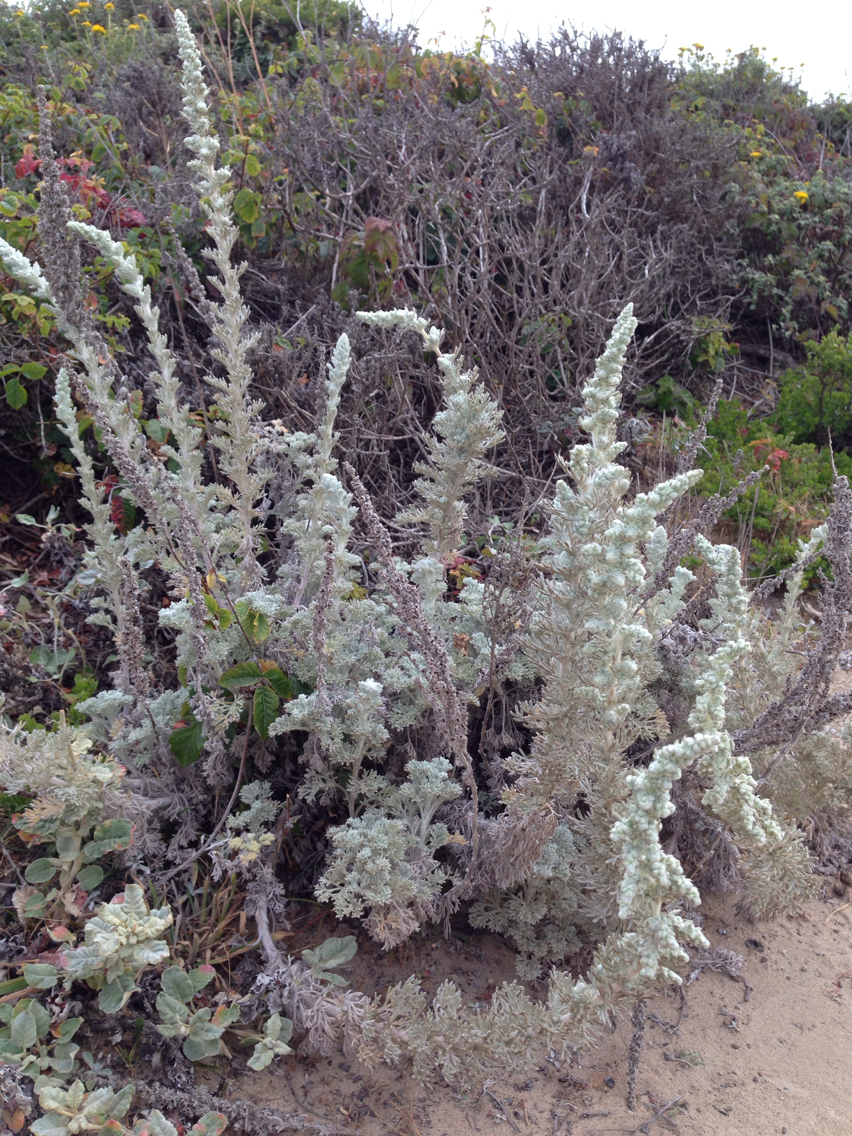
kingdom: Plantae
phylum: Tracheophyta
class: Magnoliopsida
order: Asterales
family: Asteraceae
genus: Artemisia
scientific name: Artemisia pycnocephala
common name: Coastal sagewort
